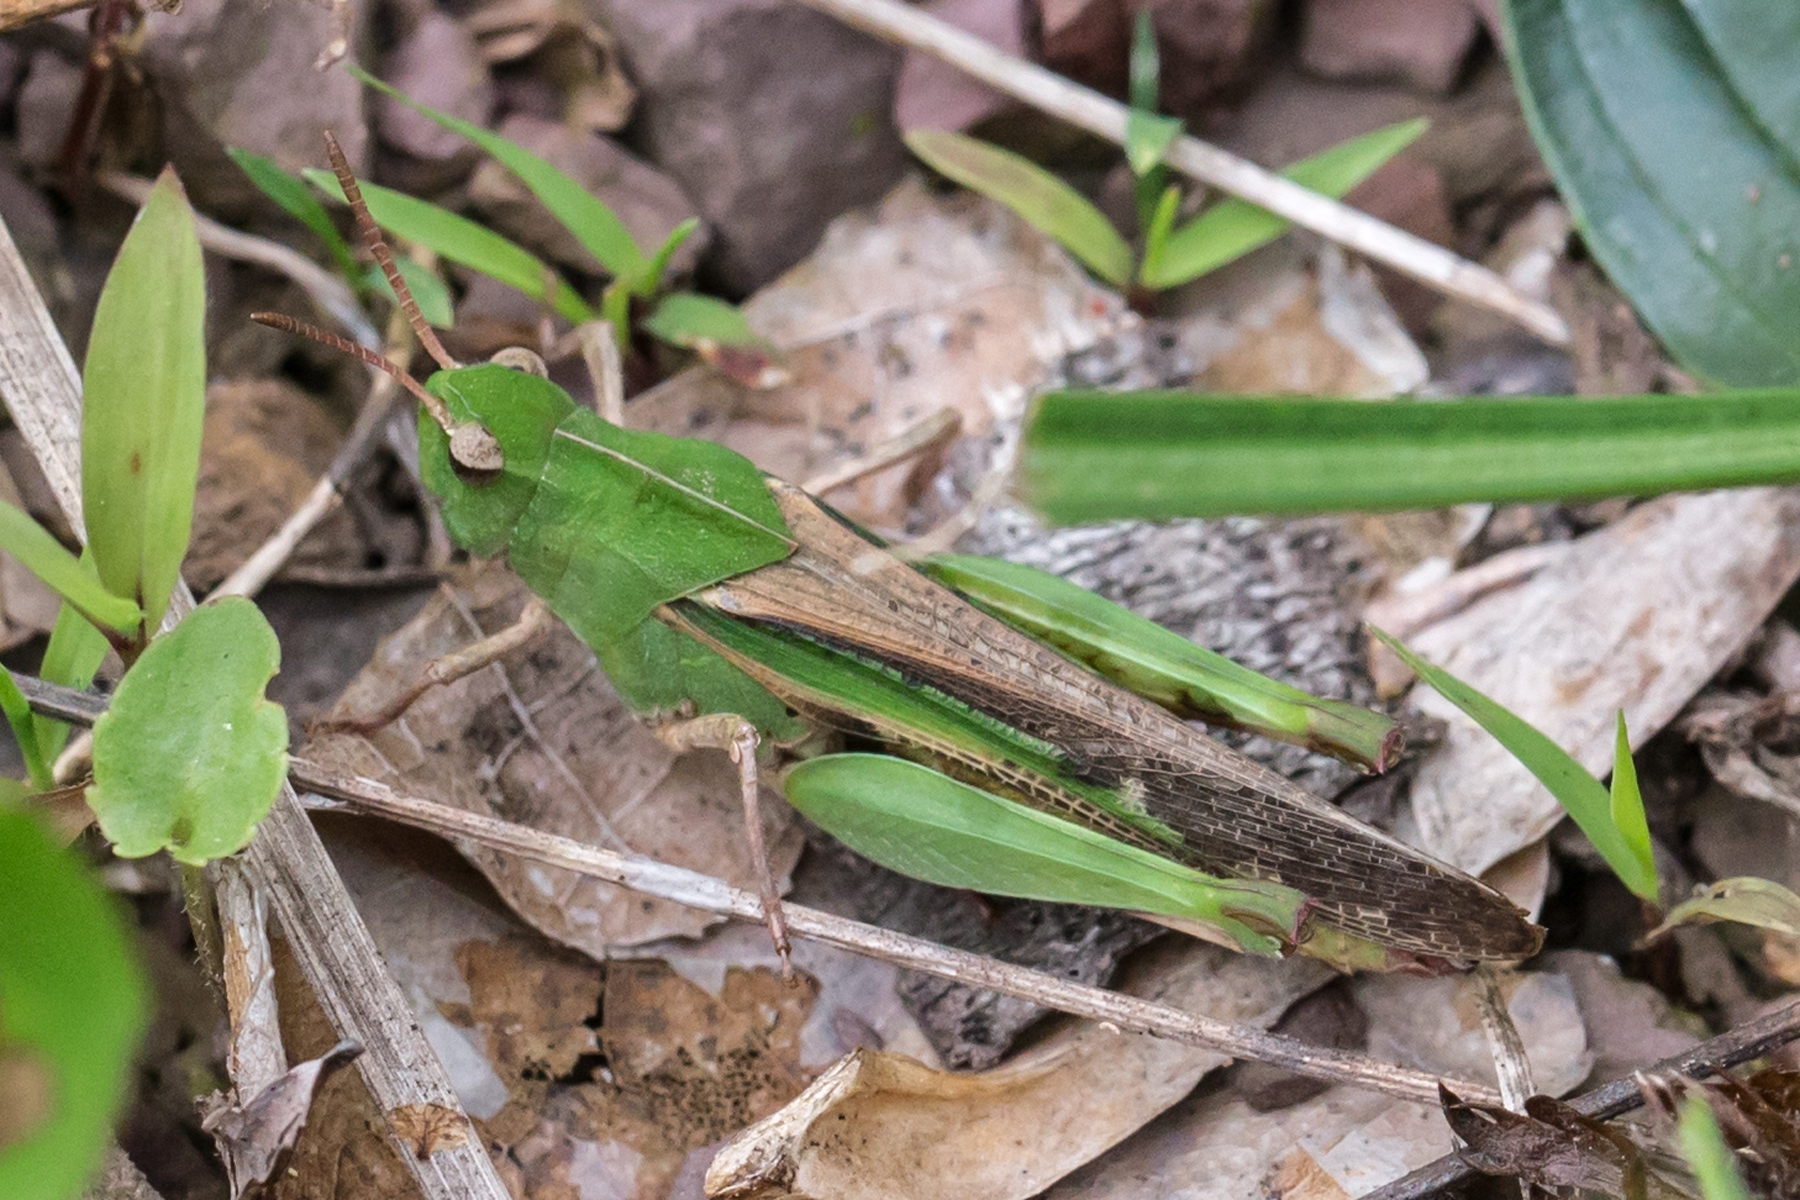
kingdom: Animalia
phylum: Arthropoda
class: Insecta
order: Orthoptera
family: Acrididae
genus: Chortophaga
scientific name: Chortophaga viridifasciata
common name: Green-striped grasshopper
